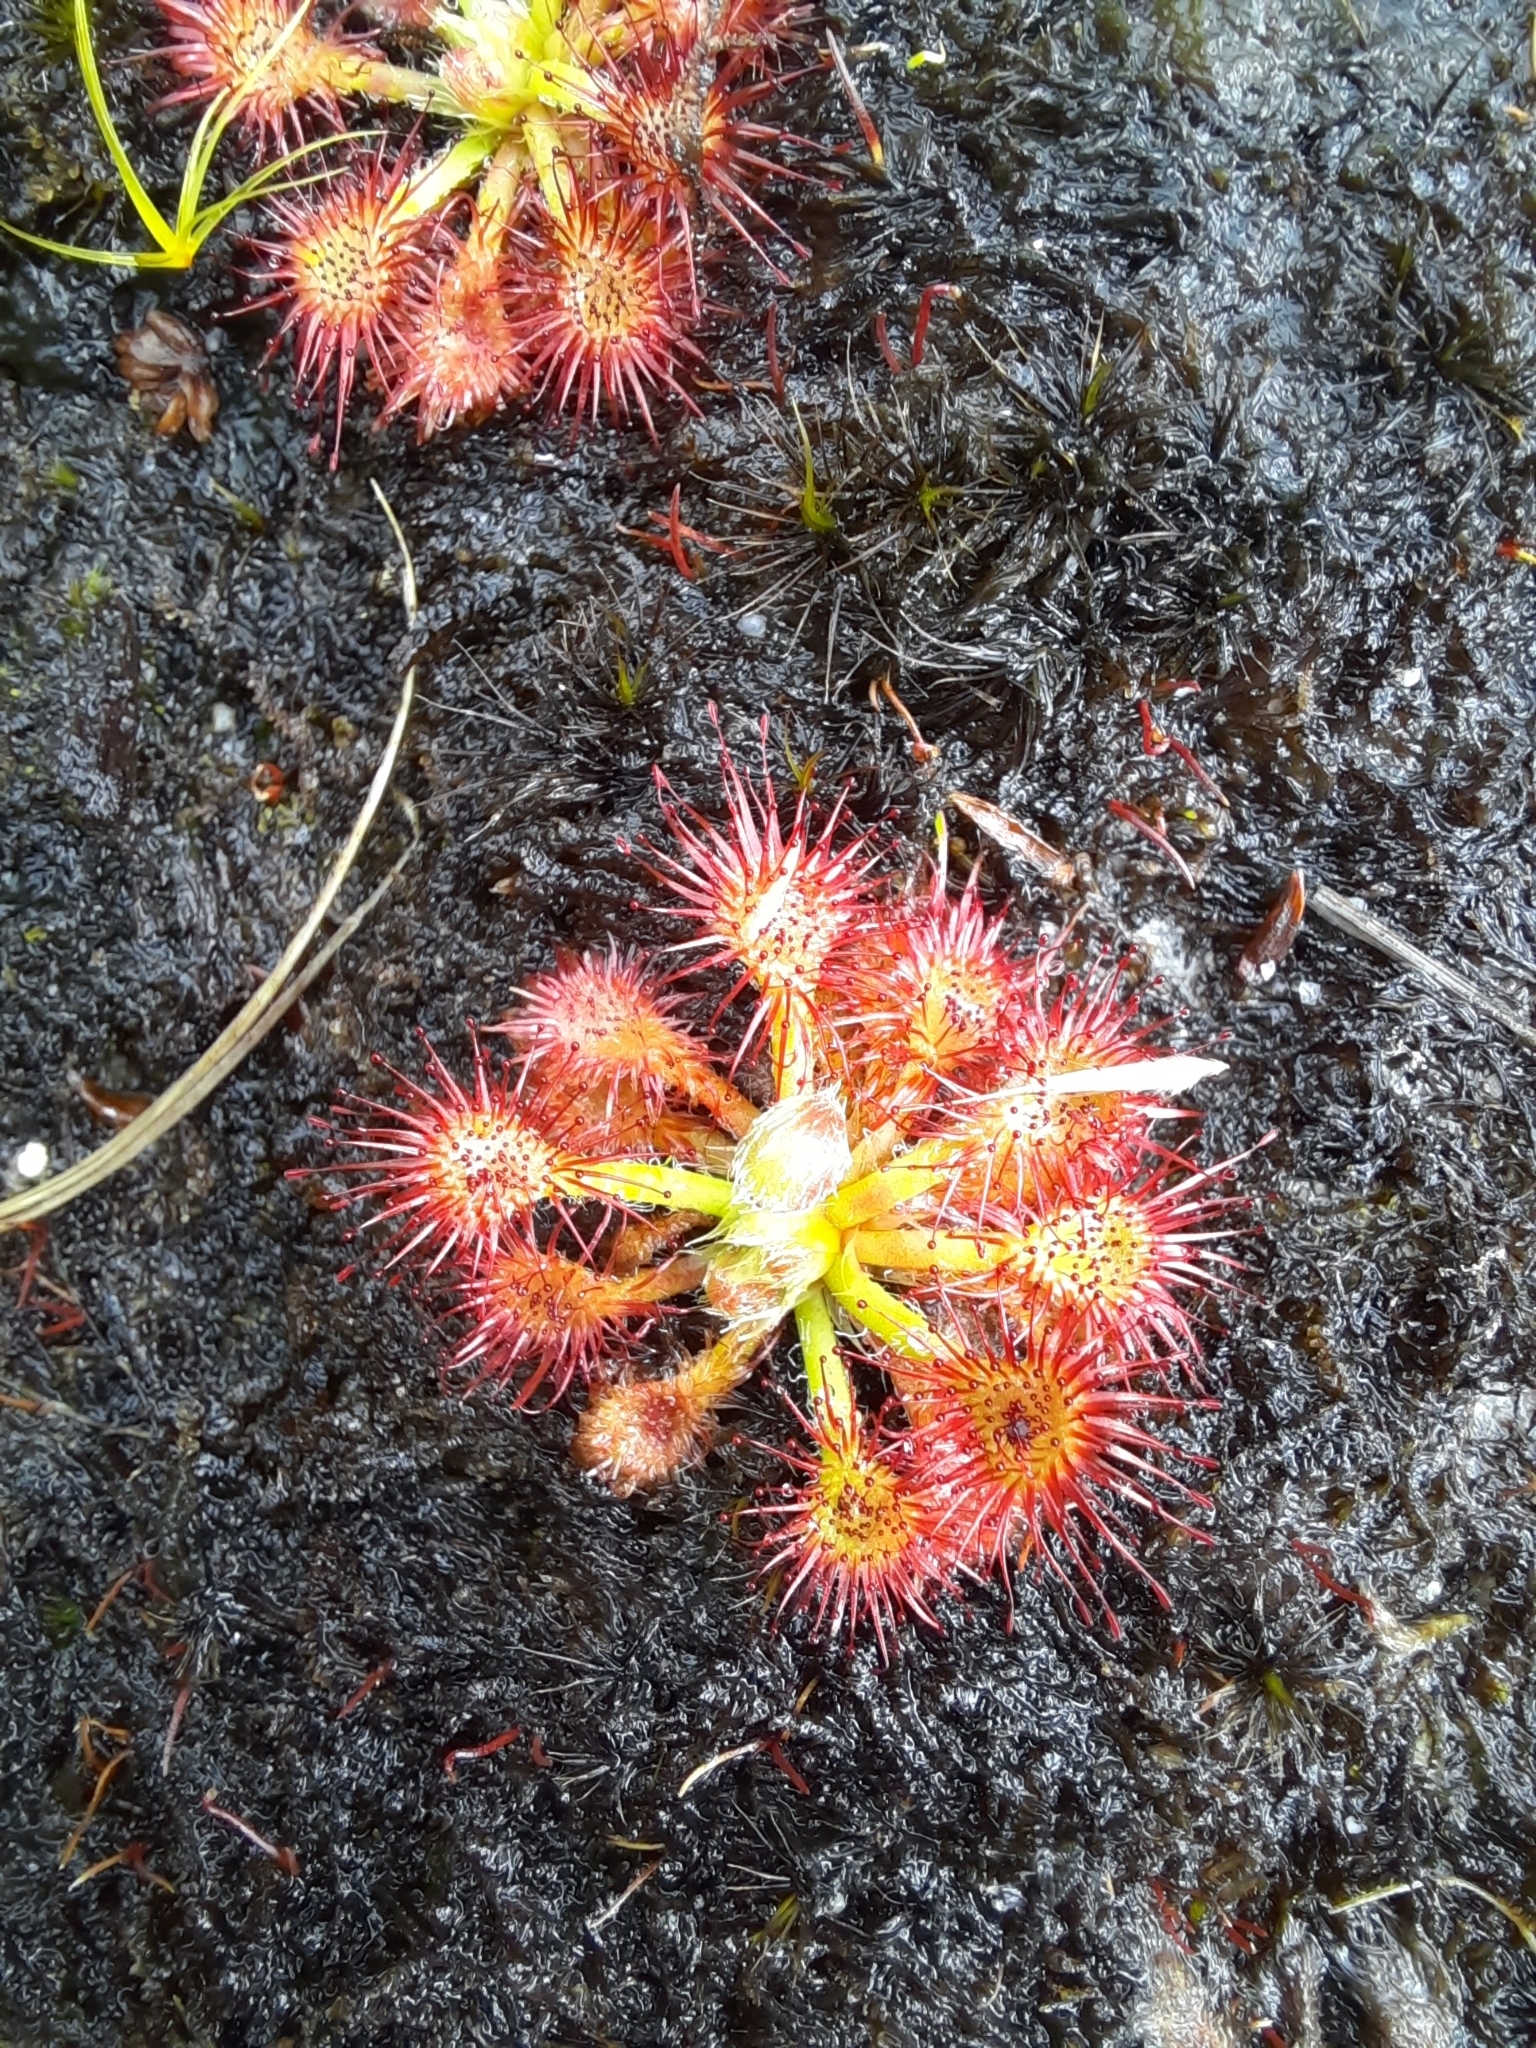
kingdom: Plantae
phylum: Tracheophyta
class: Magnoliopsida
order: Caryophyllales
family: Droseraceae
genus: Drosera
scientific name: Drosera spatulata
